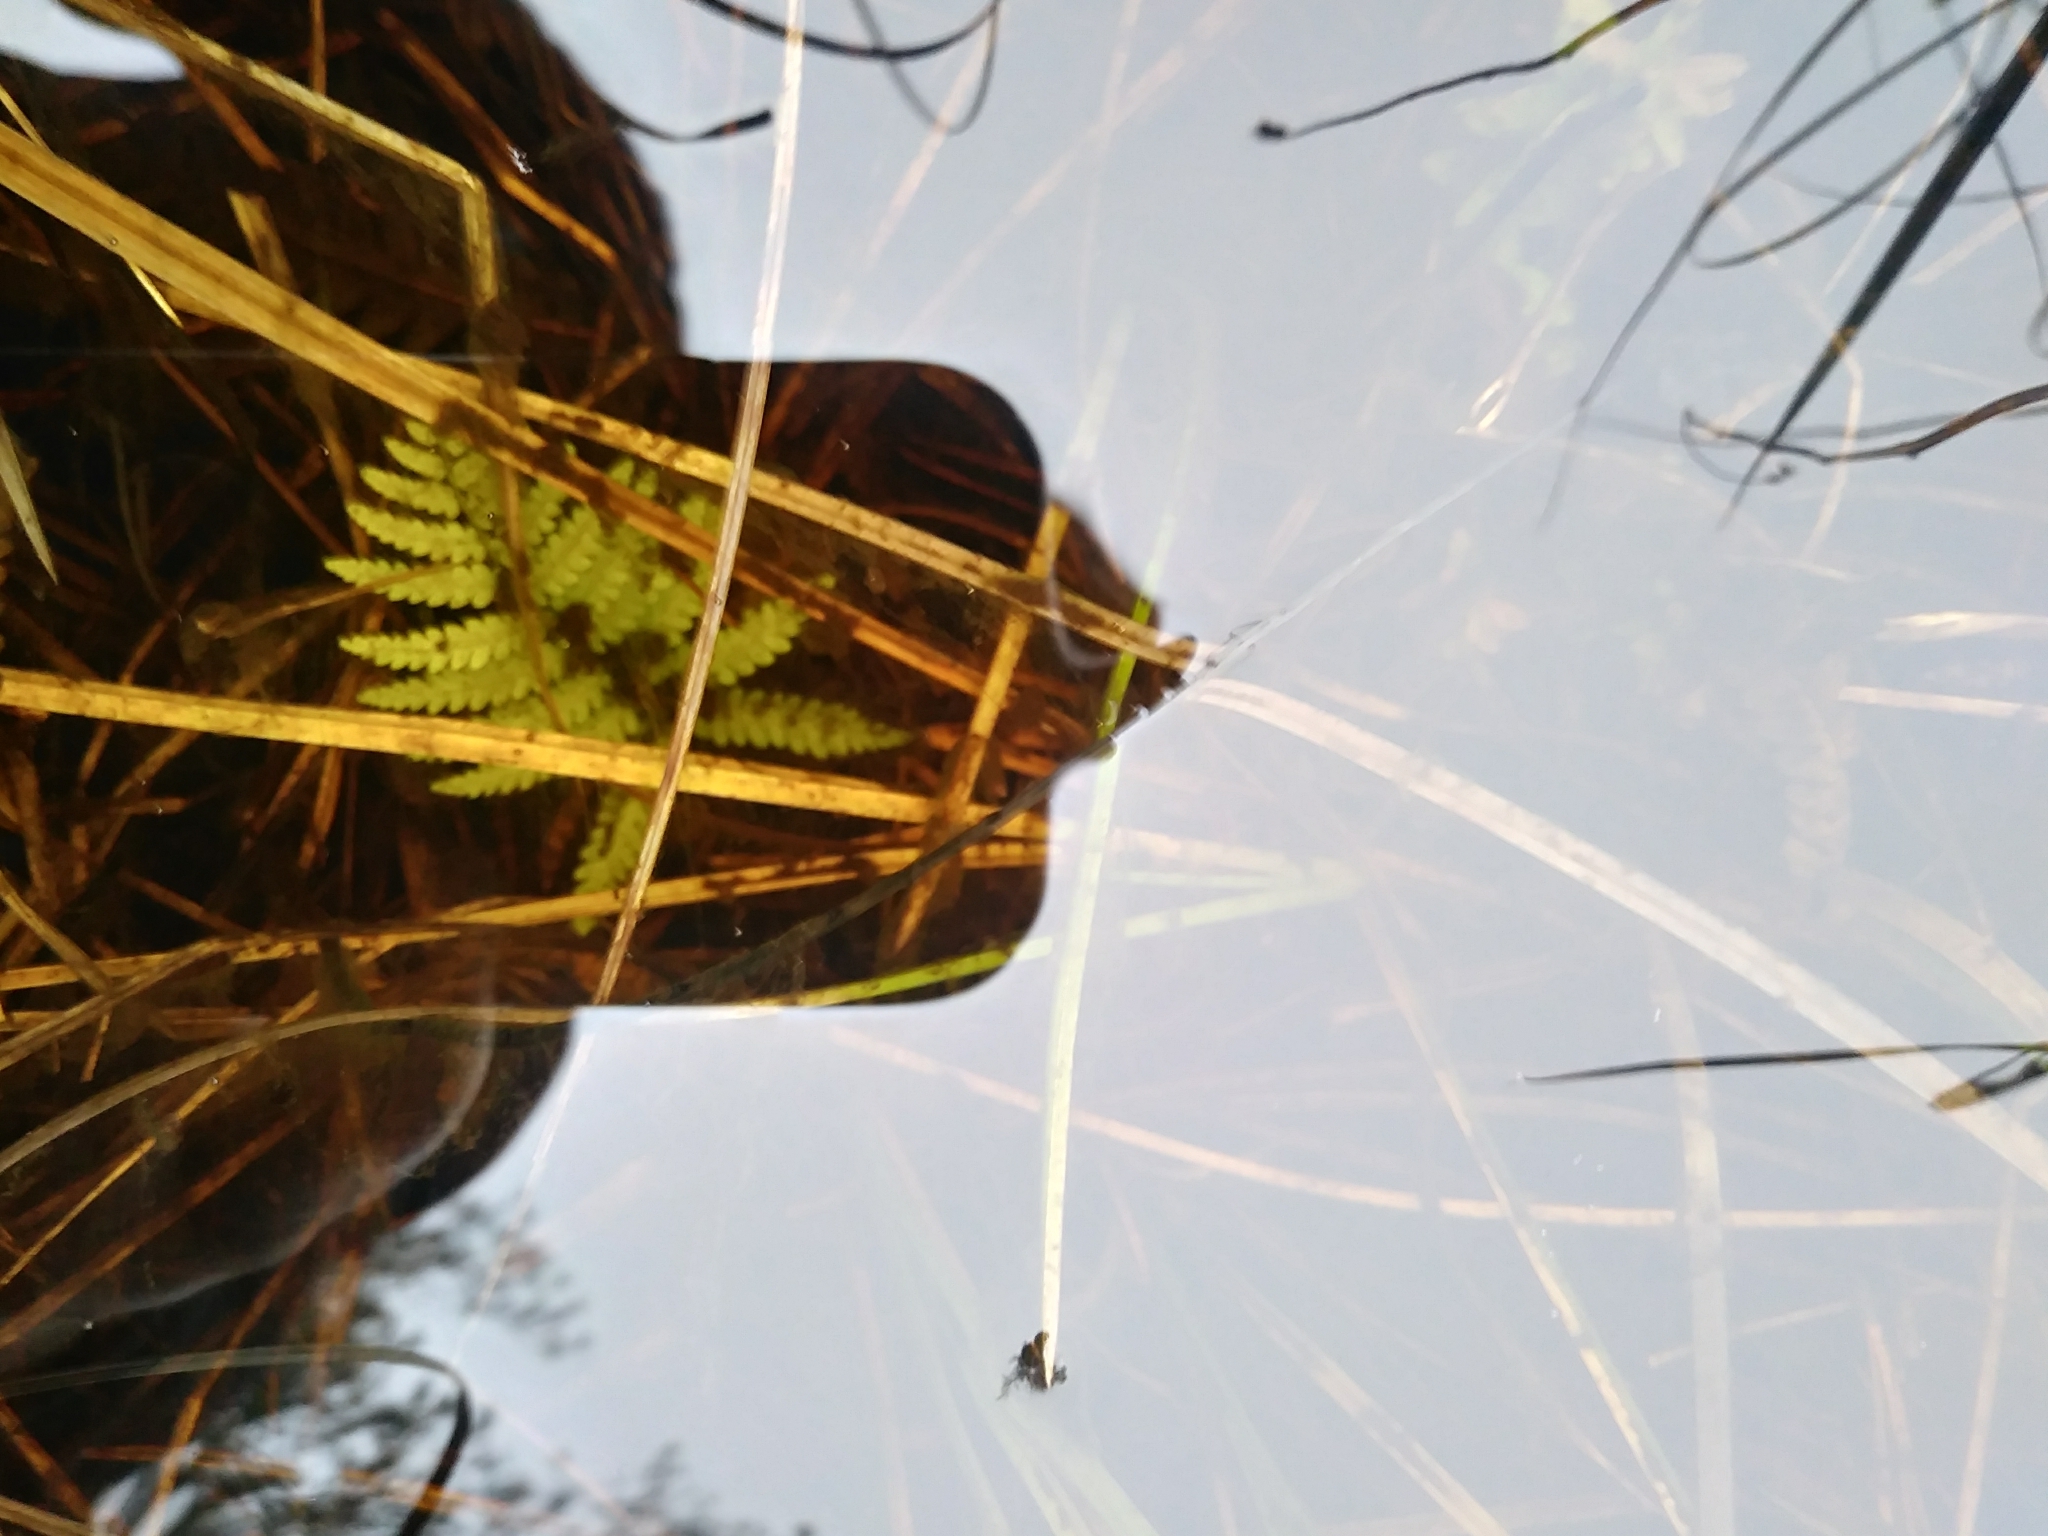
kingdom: Plantae
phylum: Tracheophyta
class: Polypodiopsida
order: Polypodiales
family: Thelypteridaceae
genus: Thelypteris
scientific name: Thelypteris palustris
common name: Marsh fern
